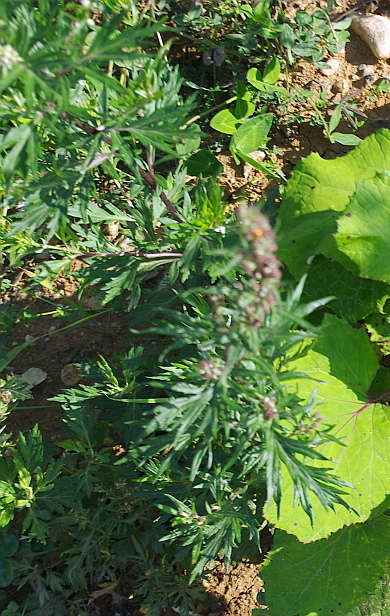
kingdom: Plantae
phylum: Tracheophyta
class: Magnoliopsida
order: Asterales
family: Asteraceae
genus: Artemisia
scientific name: Artemisia vulgaris
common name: Mugwort
